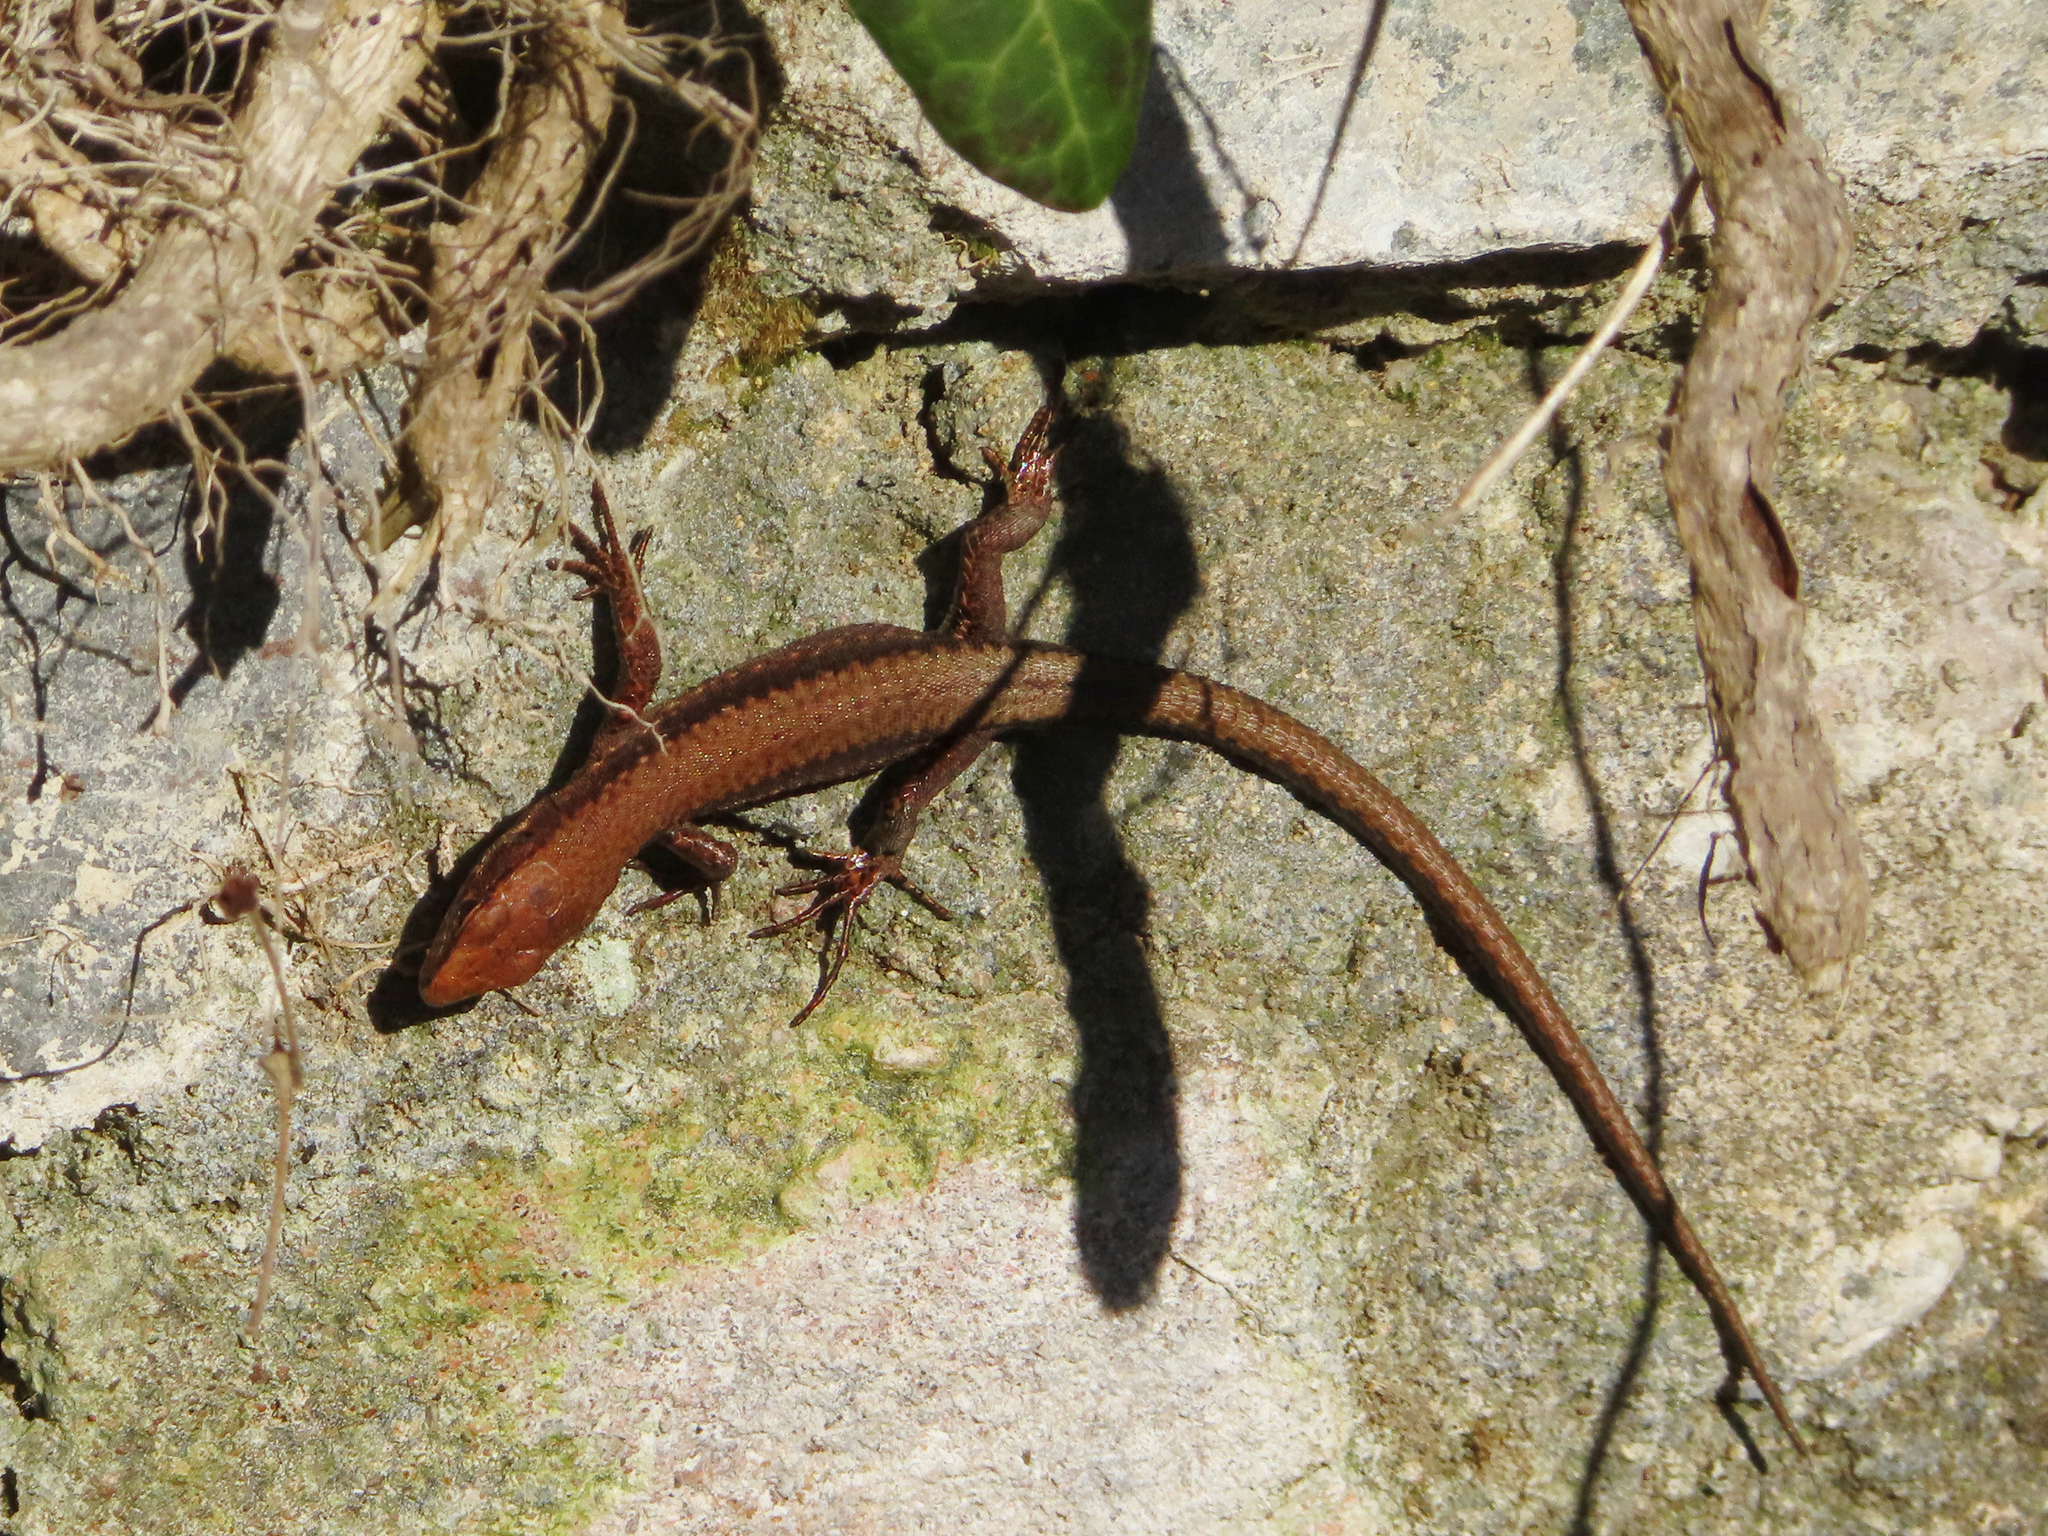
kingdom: Animalia
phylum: Chordata
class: Squamata
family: Lacertidae
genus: Darevskia
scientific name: Darevskia derjugini
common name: Derjugin's lizard
